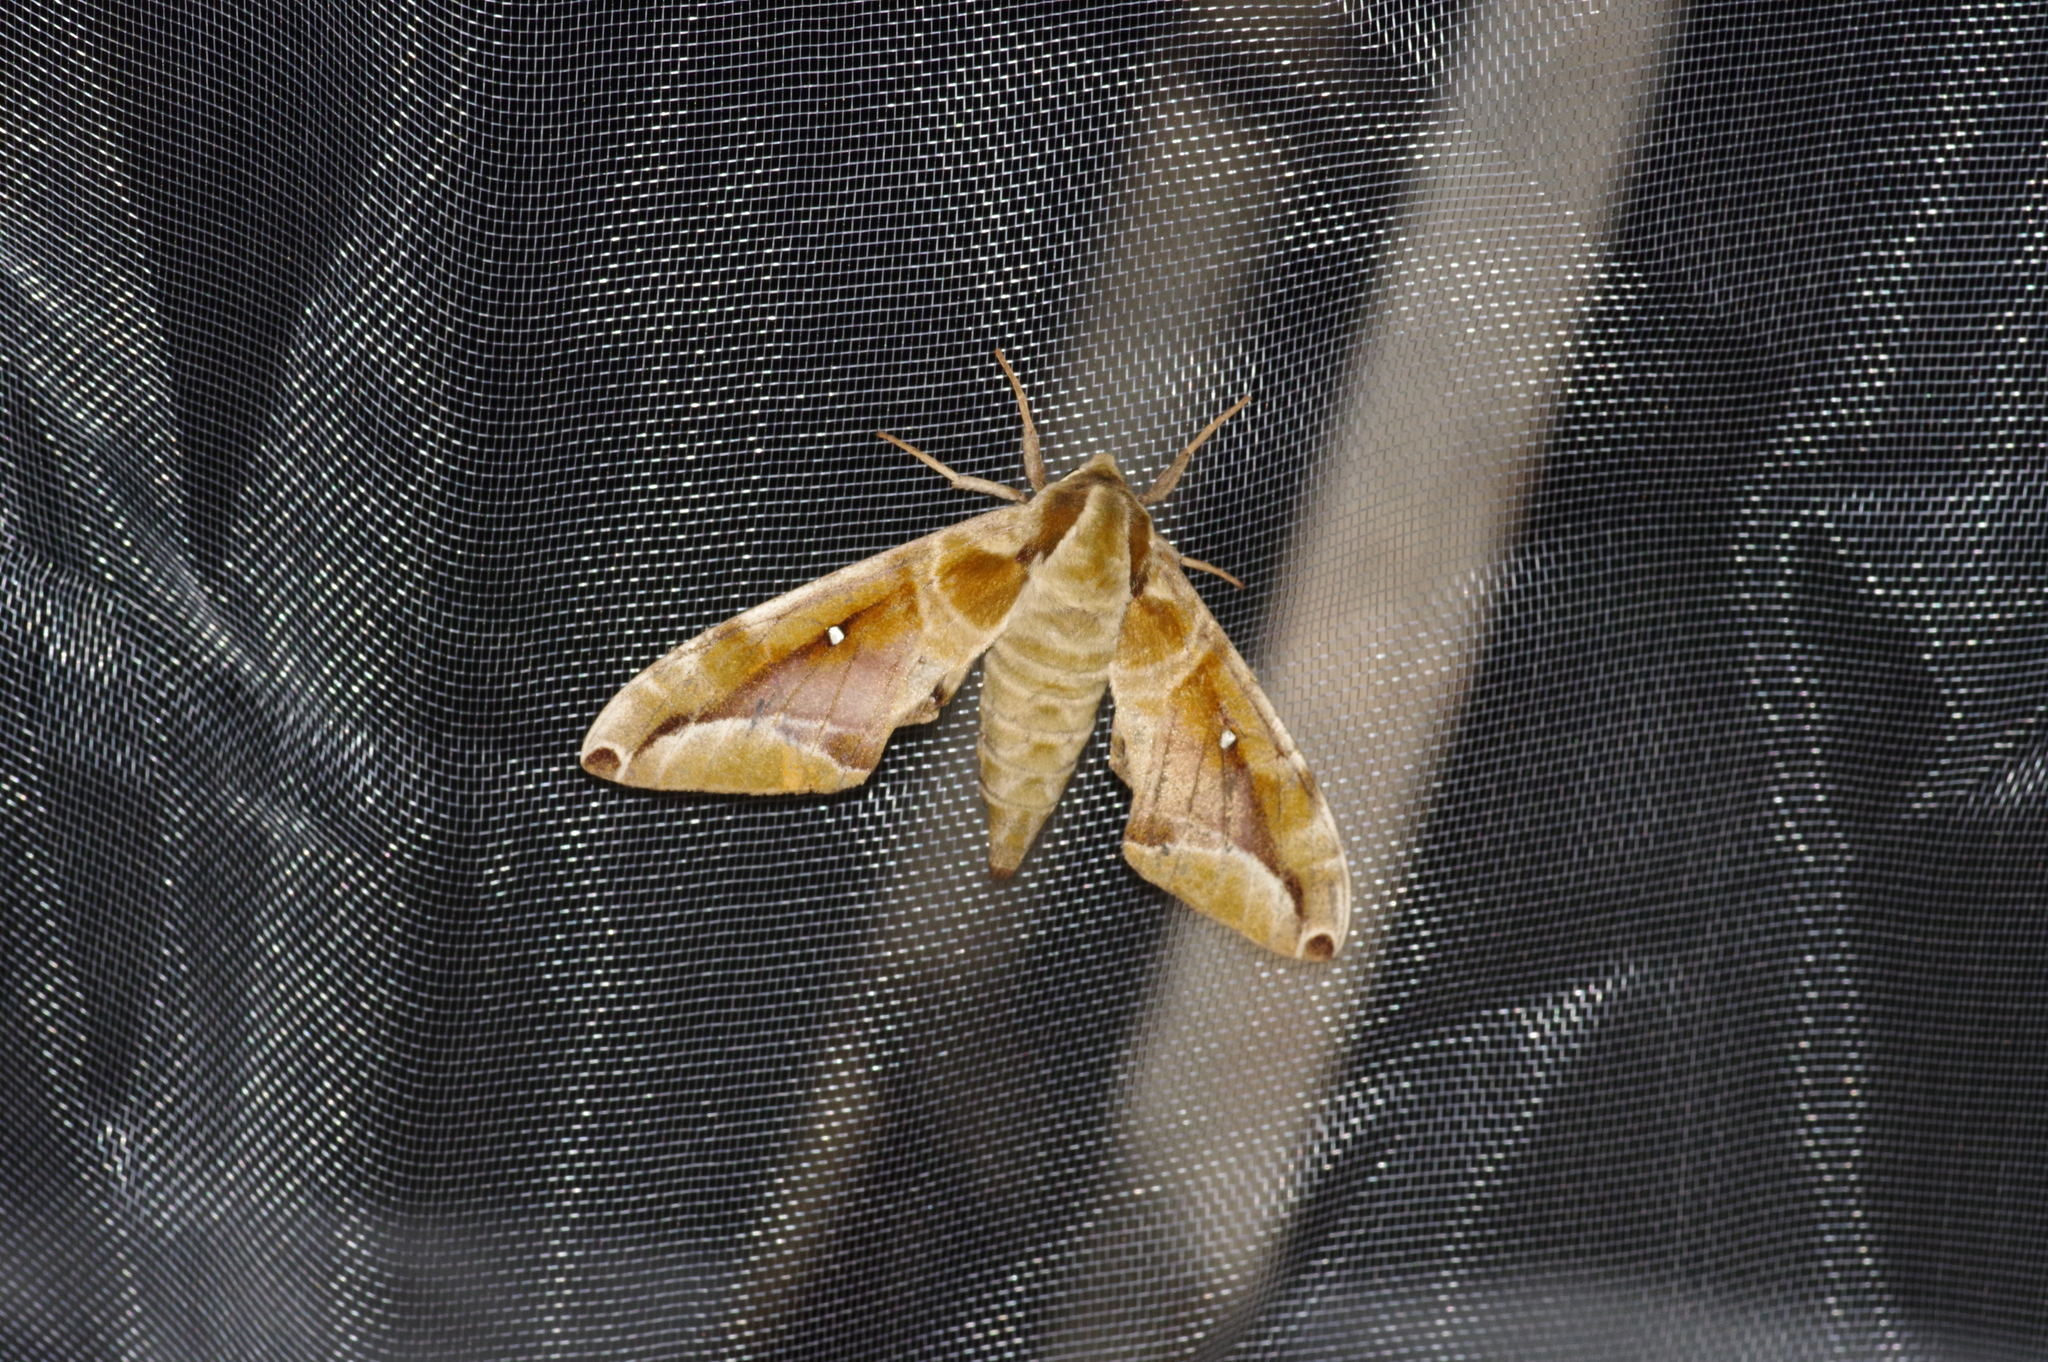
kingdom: Animalia
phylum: Arthropoda
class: Insecta
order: Lepidoptera
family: Sphingidae
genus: Parum
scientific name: Parum colligata
